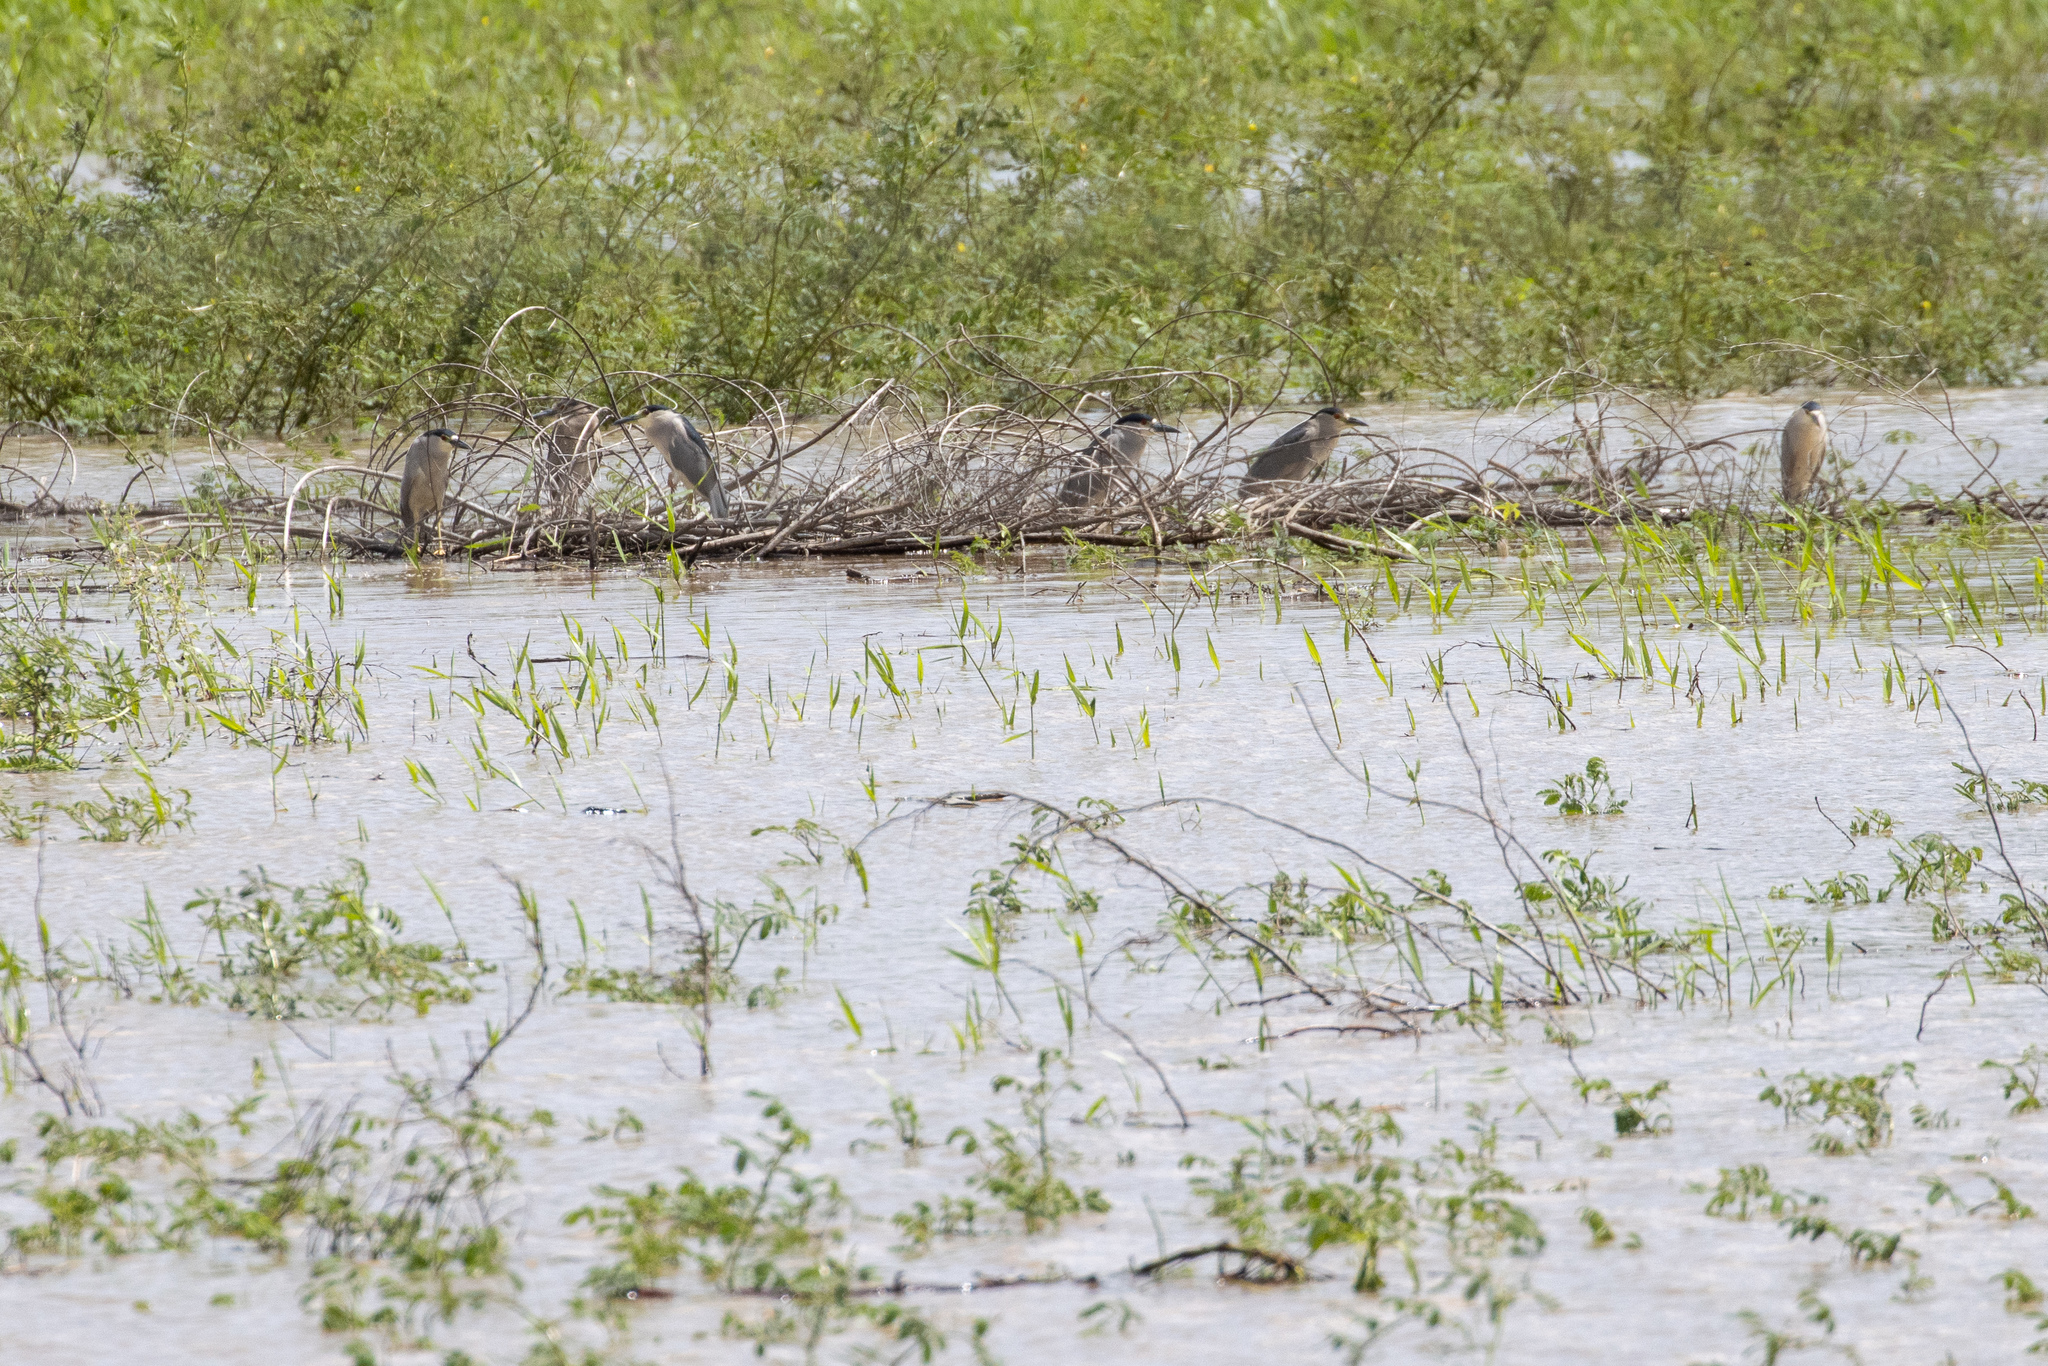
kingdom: Animalia
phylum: Chordata
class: Aves
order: Pelecaniformes
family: Ardeidae
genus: Nycticorax
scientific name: Nycticorax nycticorax
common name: Black-crowned night heron
